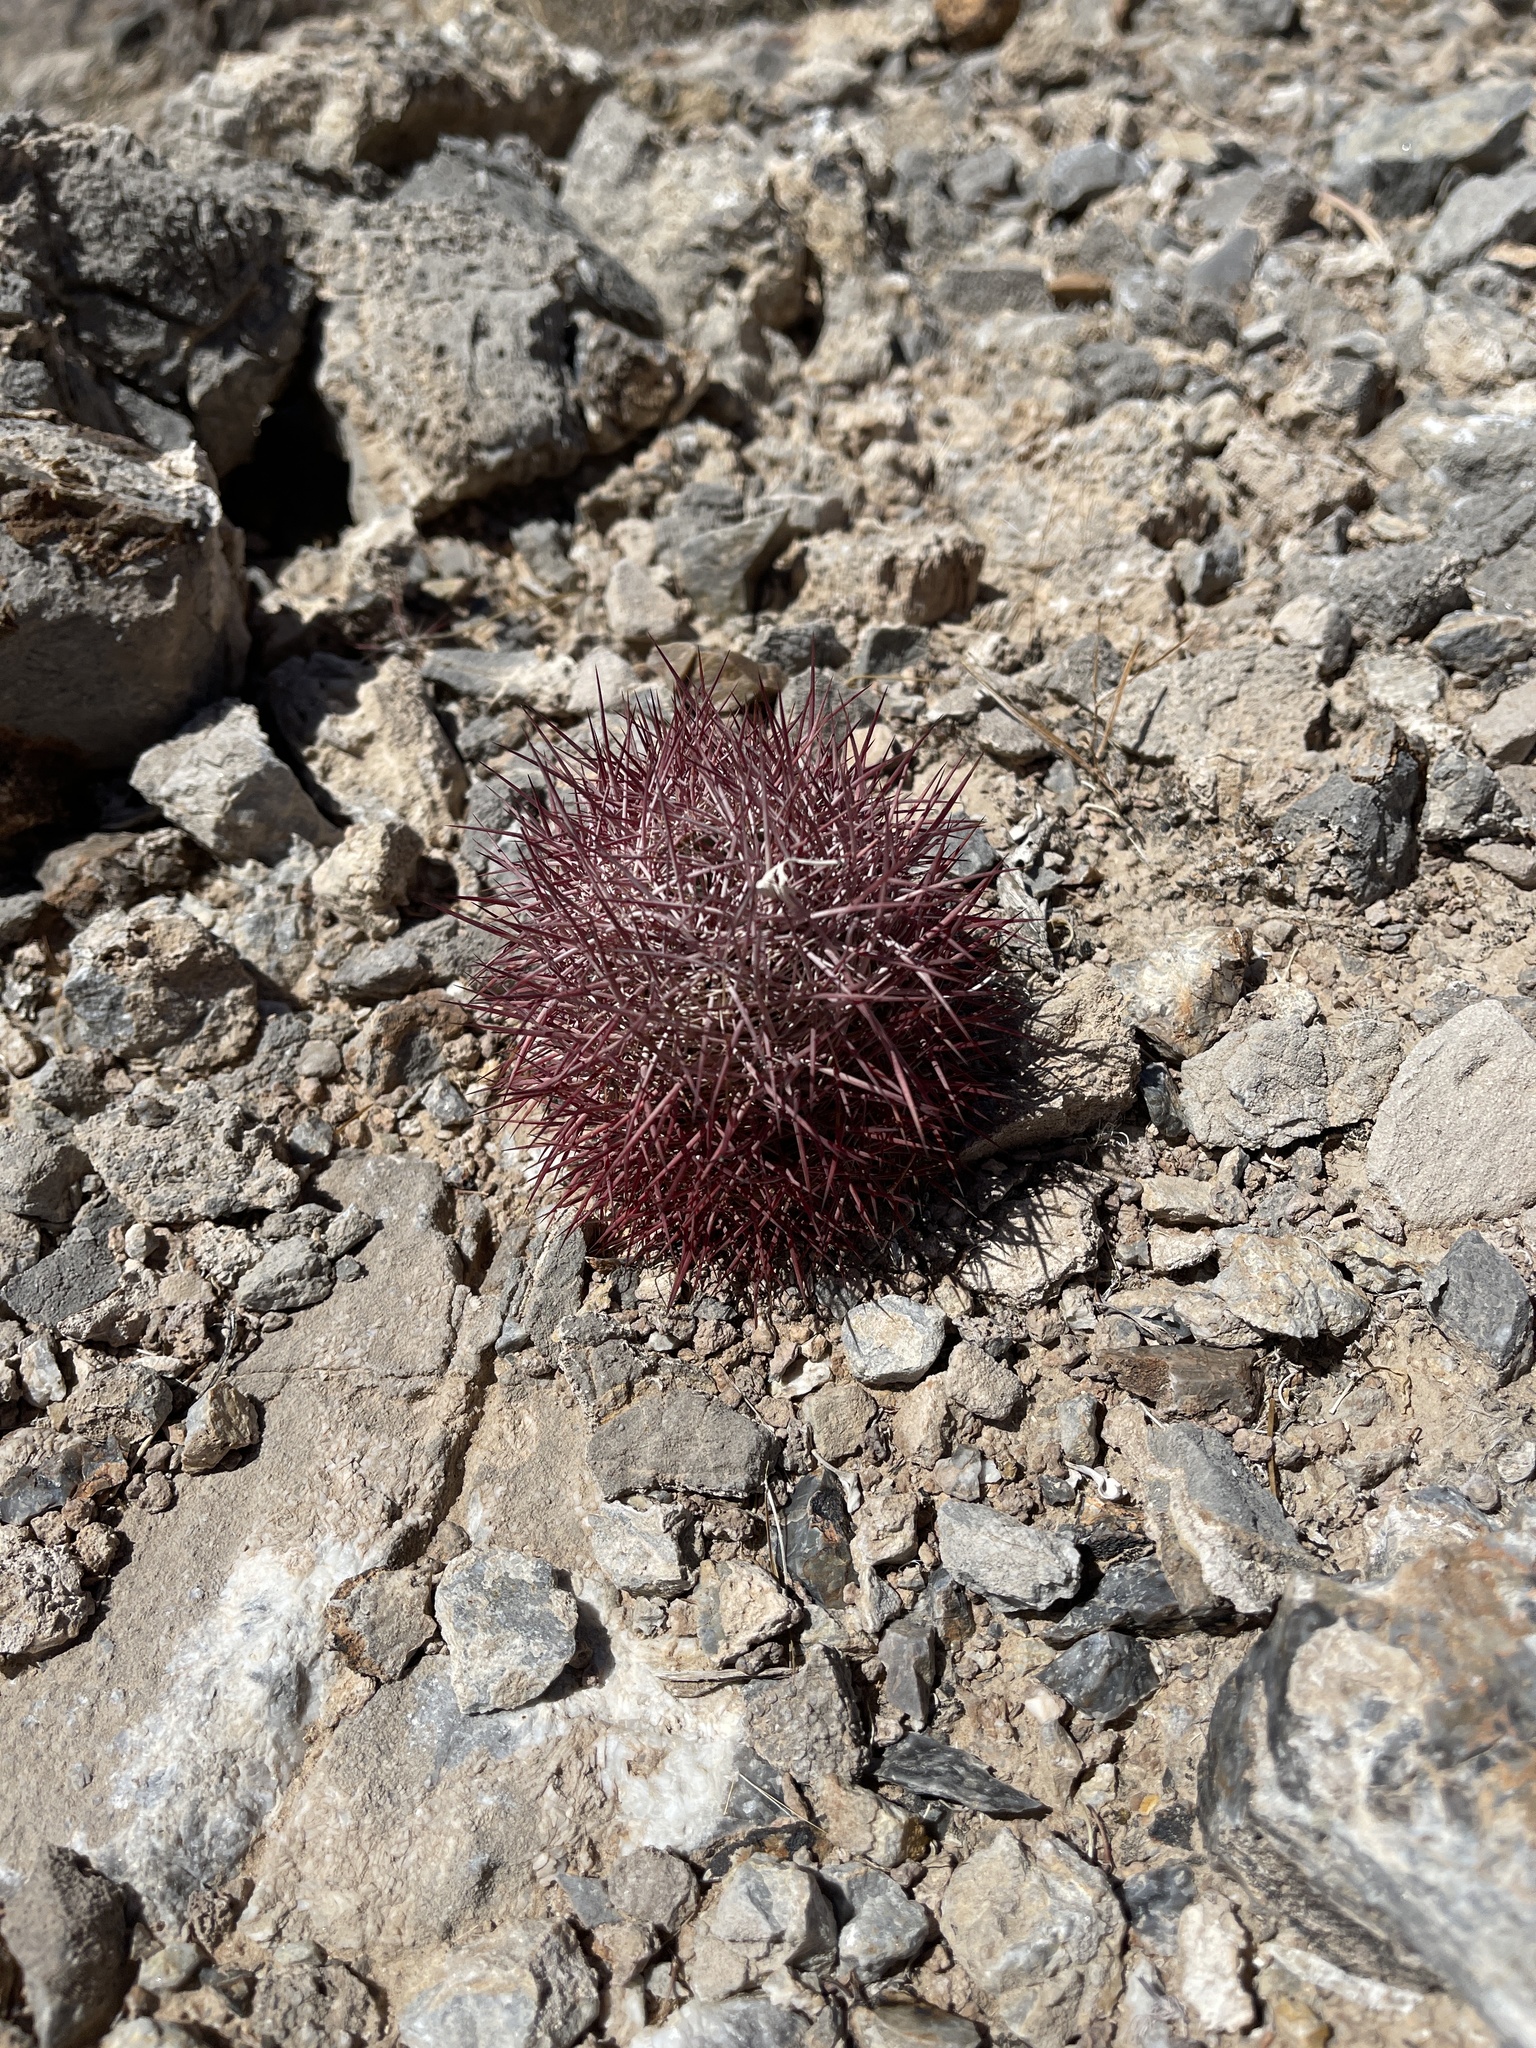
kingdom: Plantae
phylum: Tracheophyta
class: Magnoliopsida
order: Caryophyllales
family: Cactaceae
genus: Sclerocactus
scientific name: Sclerocactus johnsonii
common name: Eight-spine fishhook cactus
